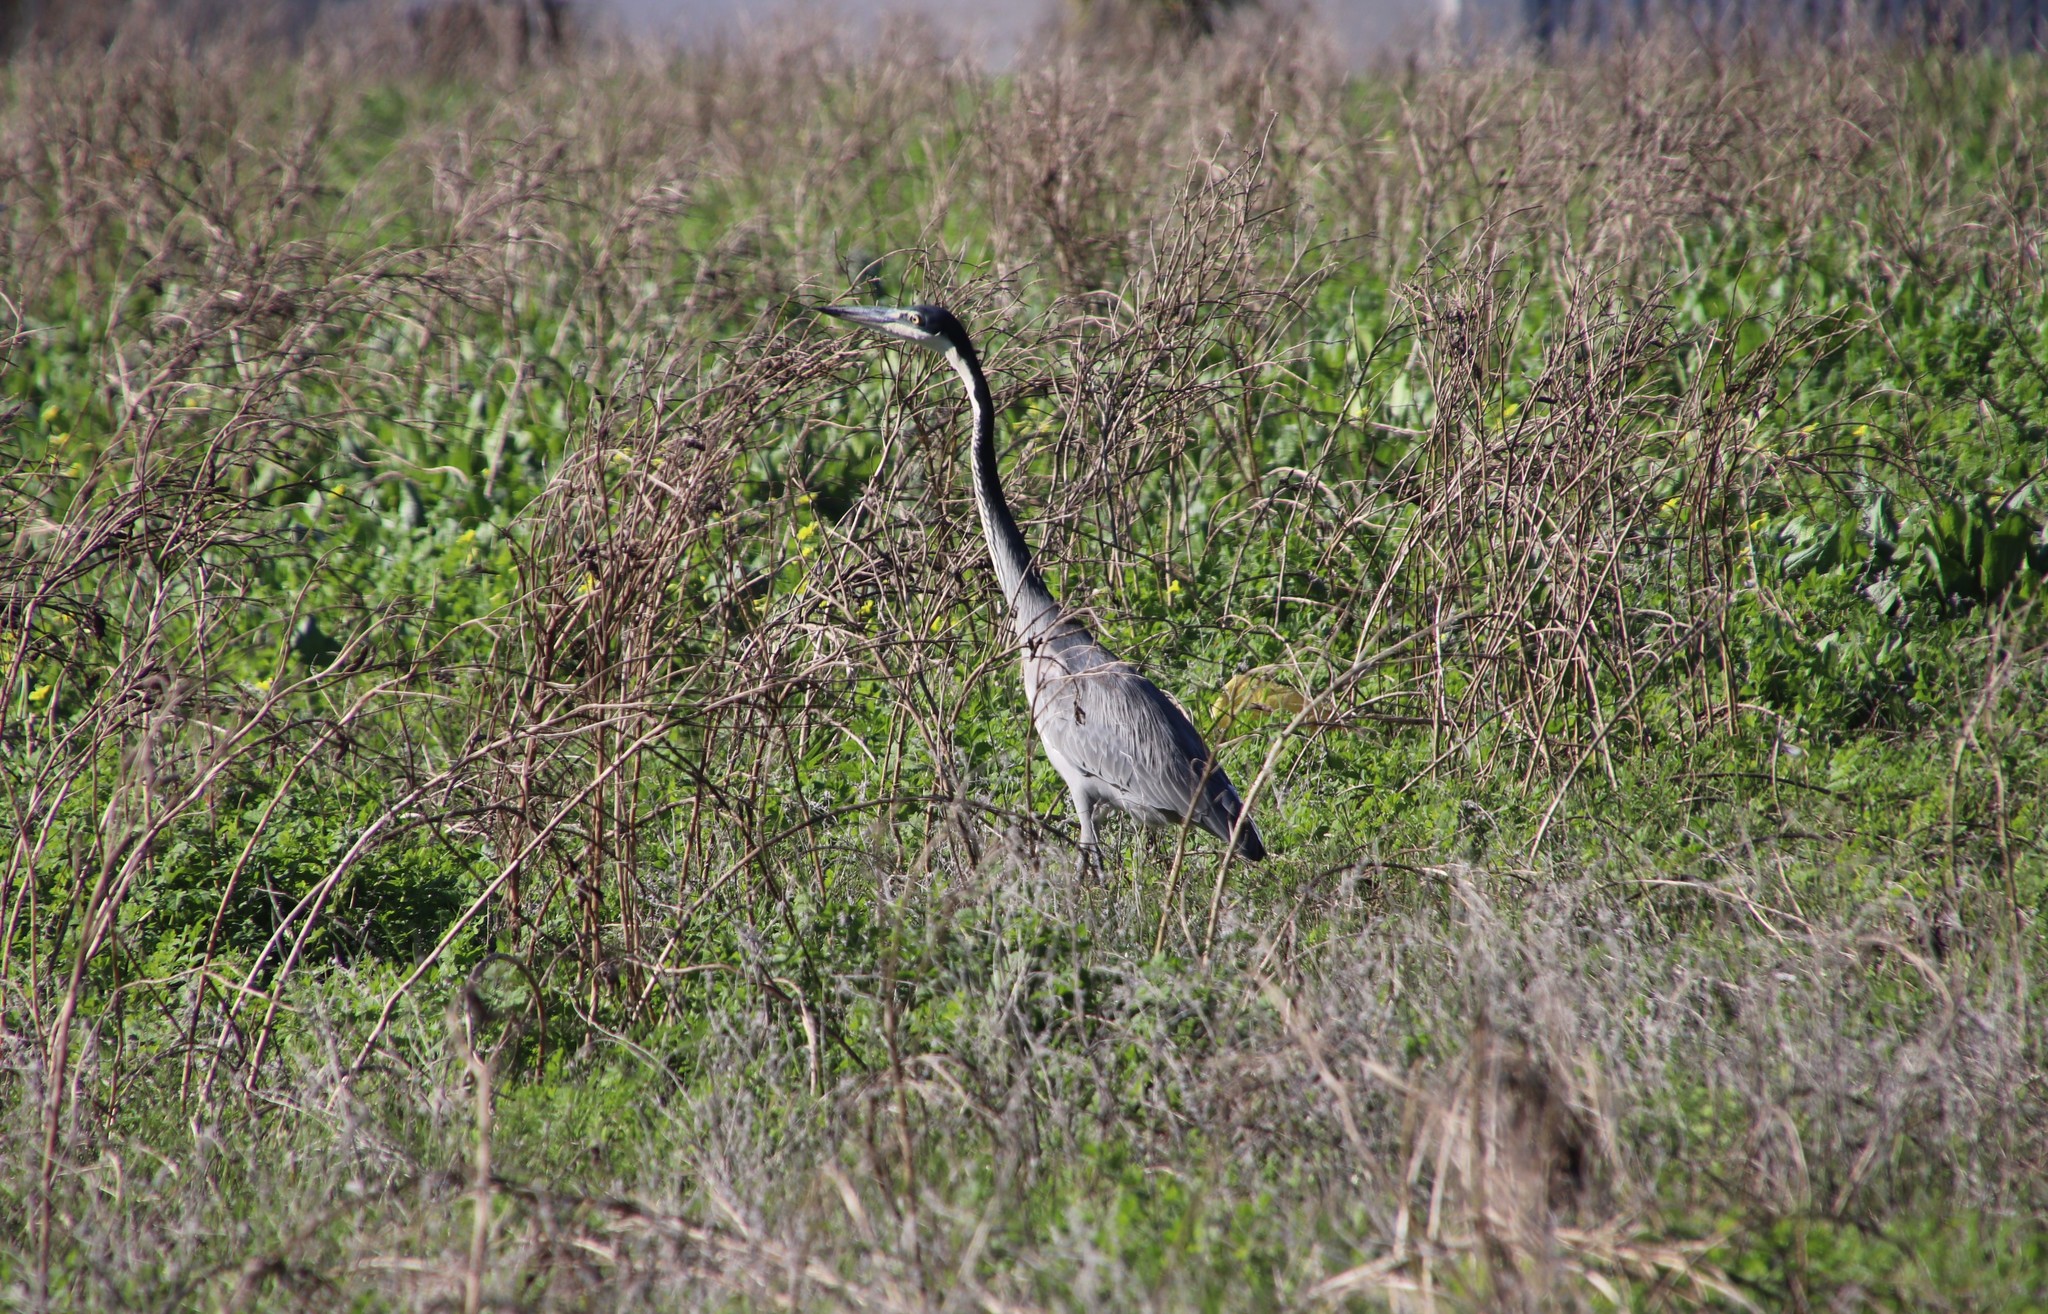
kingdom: Animalia
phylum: Chordata
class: Aves
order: Pelecaniformes
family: Ardeidae
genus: Ardea
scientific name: Ardea melanocephala
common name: Black-headed heron
